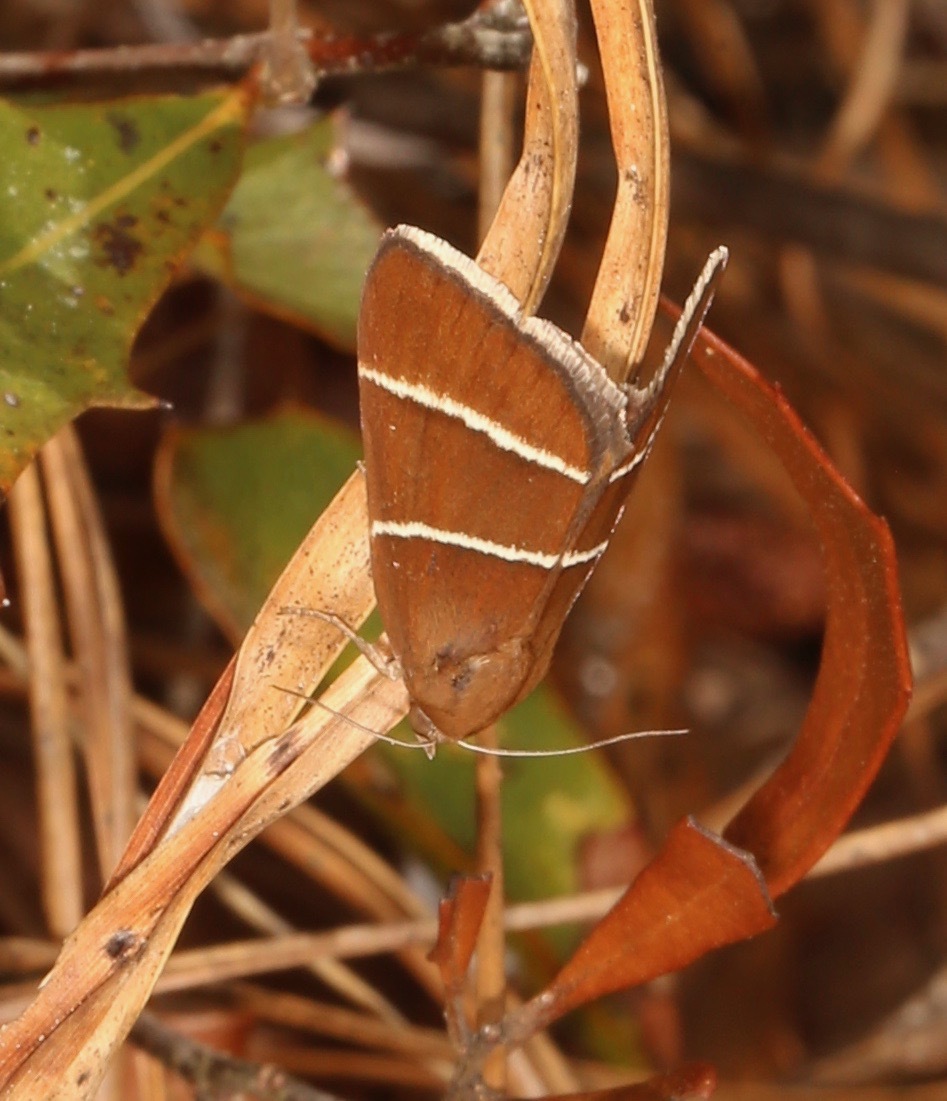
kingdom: Animalia
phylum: Arthropoda
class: Insecta
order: Lepidoptera
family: Erebidae
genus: Argyrostrotis
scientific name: Argyrostrotis quadrifilaris
